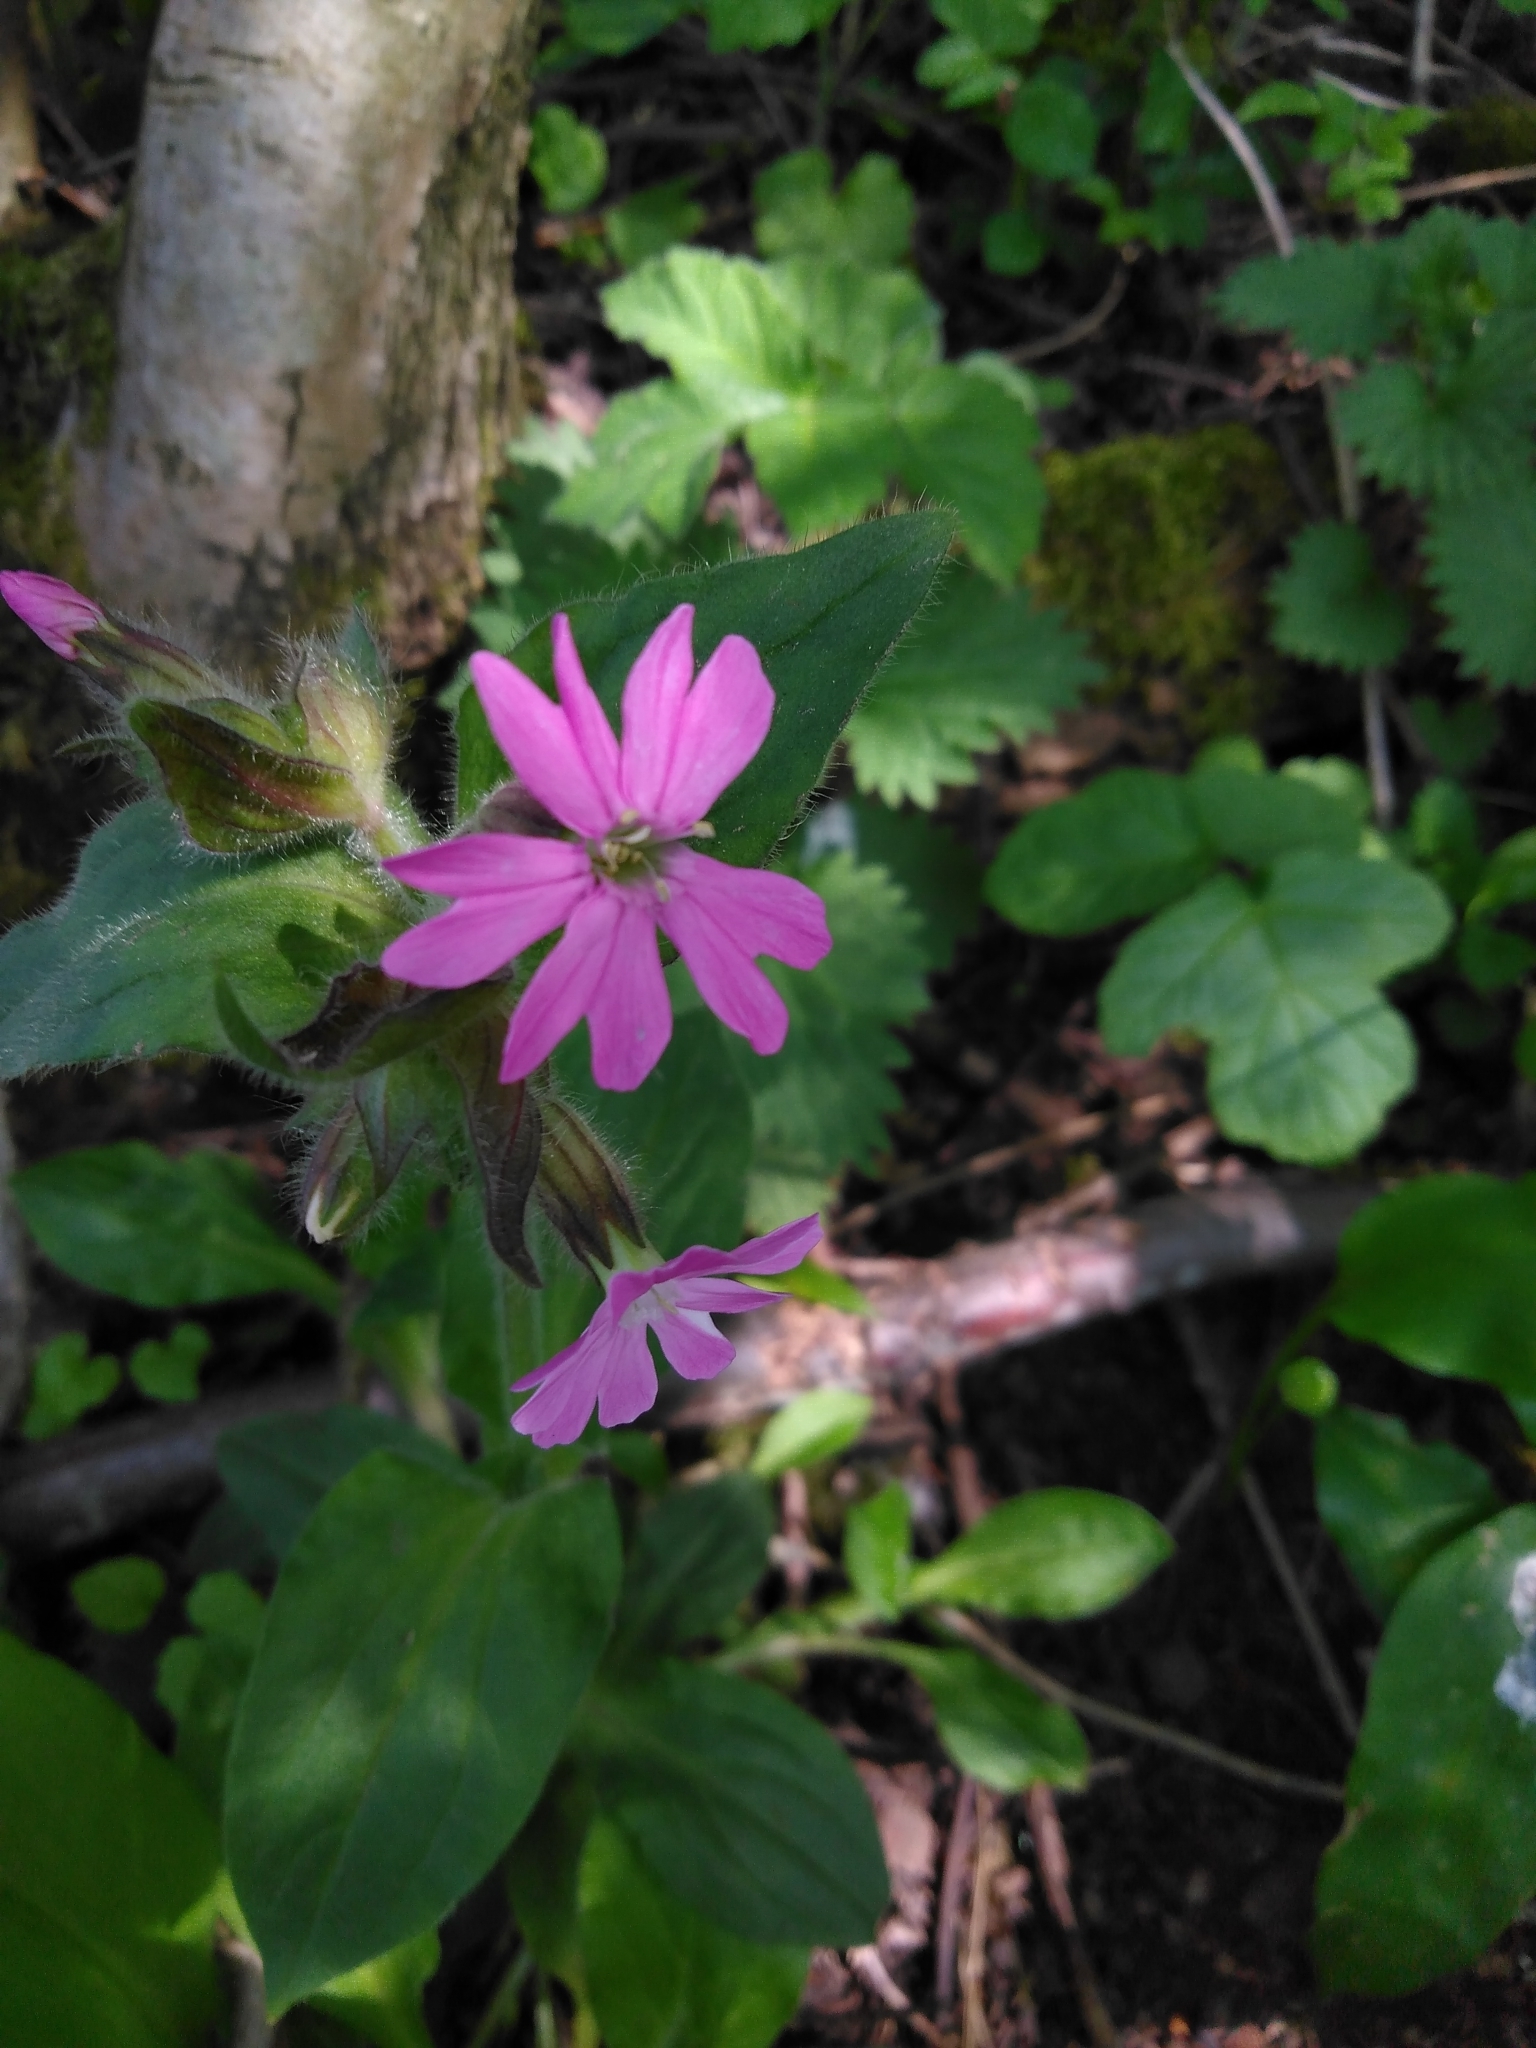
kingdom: Plantae
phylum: Tracheophyta
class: Magnoliopsida
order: Caryophyllales
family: Caryophyllaceae
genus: Silene
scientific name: Silene dioica
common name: Red campion
